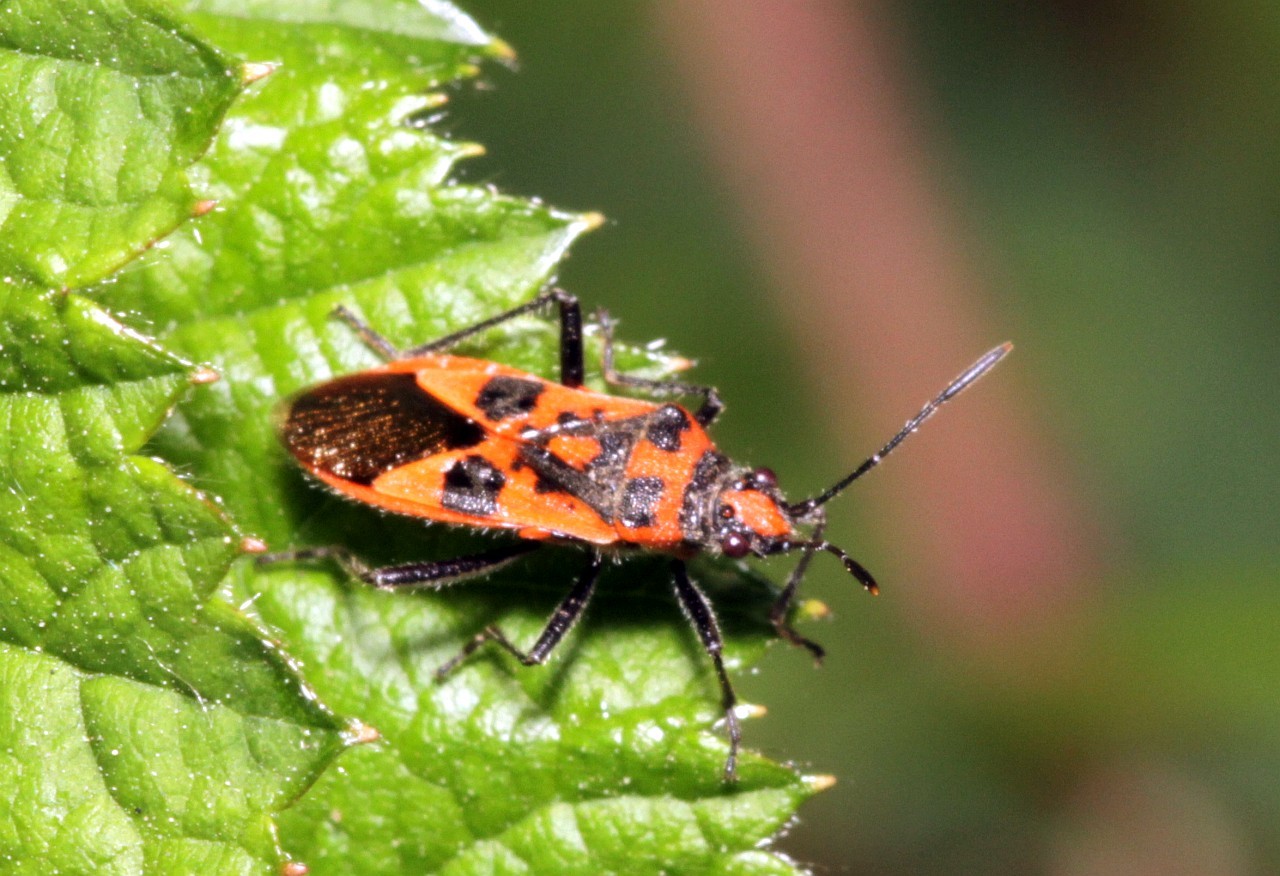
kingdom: Animalia
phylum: Arthropoda
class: Insecta
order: Hemiptera
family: Rhopalidae
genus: Corizus
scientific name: Corizus hyoscyami
